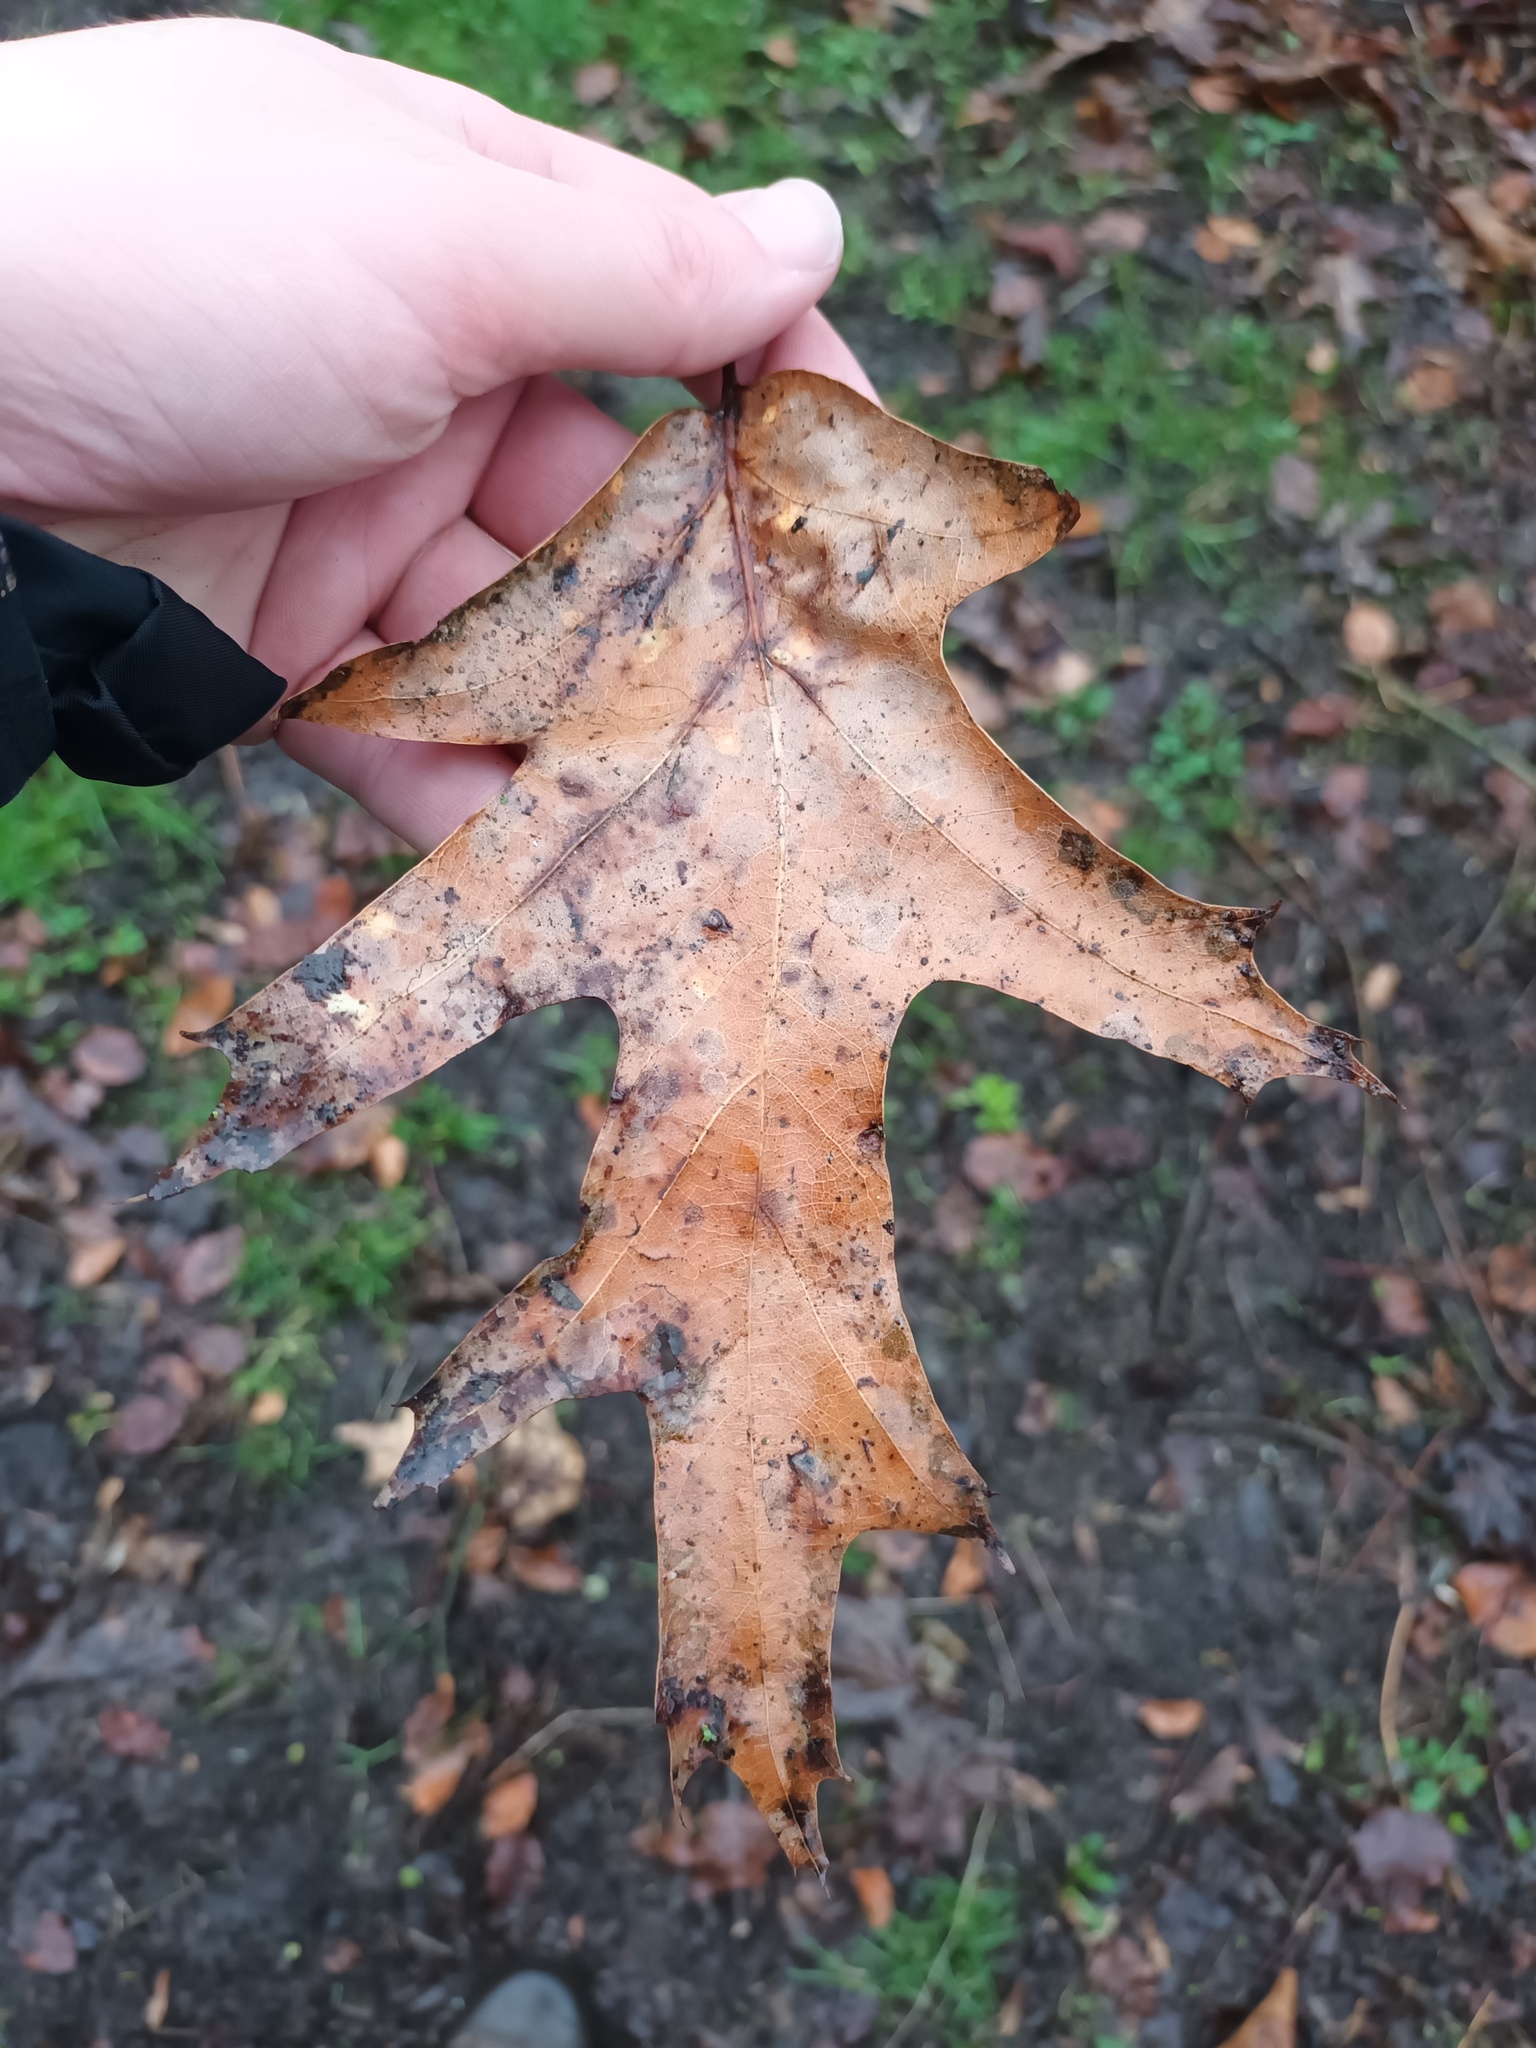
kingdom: Plantae
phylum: Tracheophyta
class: Magnoliopsida
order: Fagales
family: Fagaceae
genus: Quercus
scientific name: Quercus rubra
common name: Red oak
